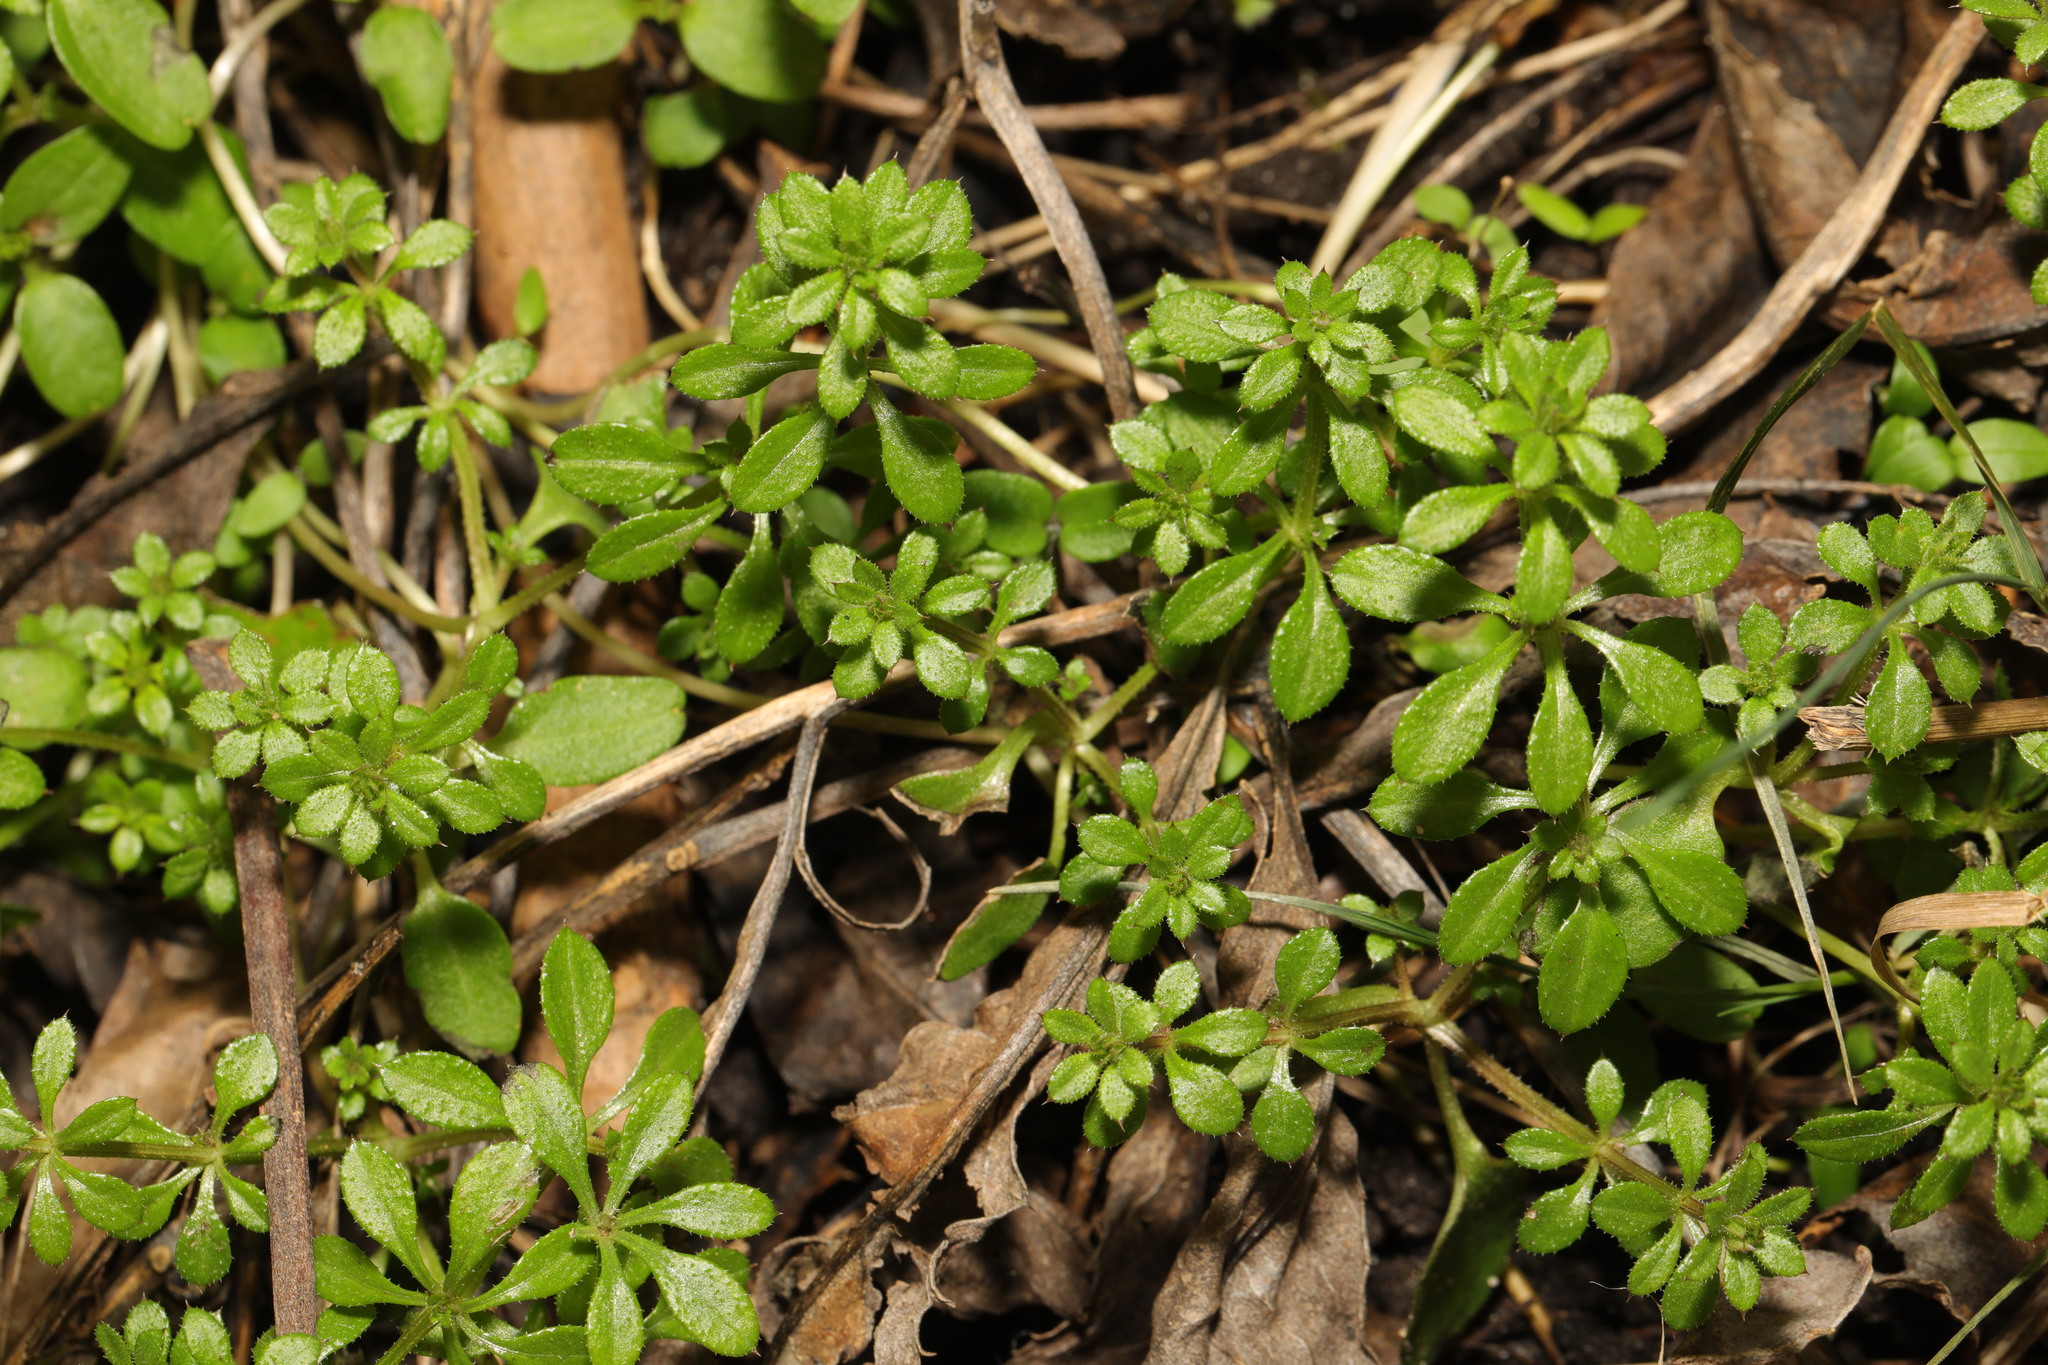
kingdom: Plantae
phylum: Tracheophyta
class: Magnoliopsida
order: Gentianales
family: Rubiaceae
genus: Galium
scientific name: Galium aparine
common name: Cleavers
